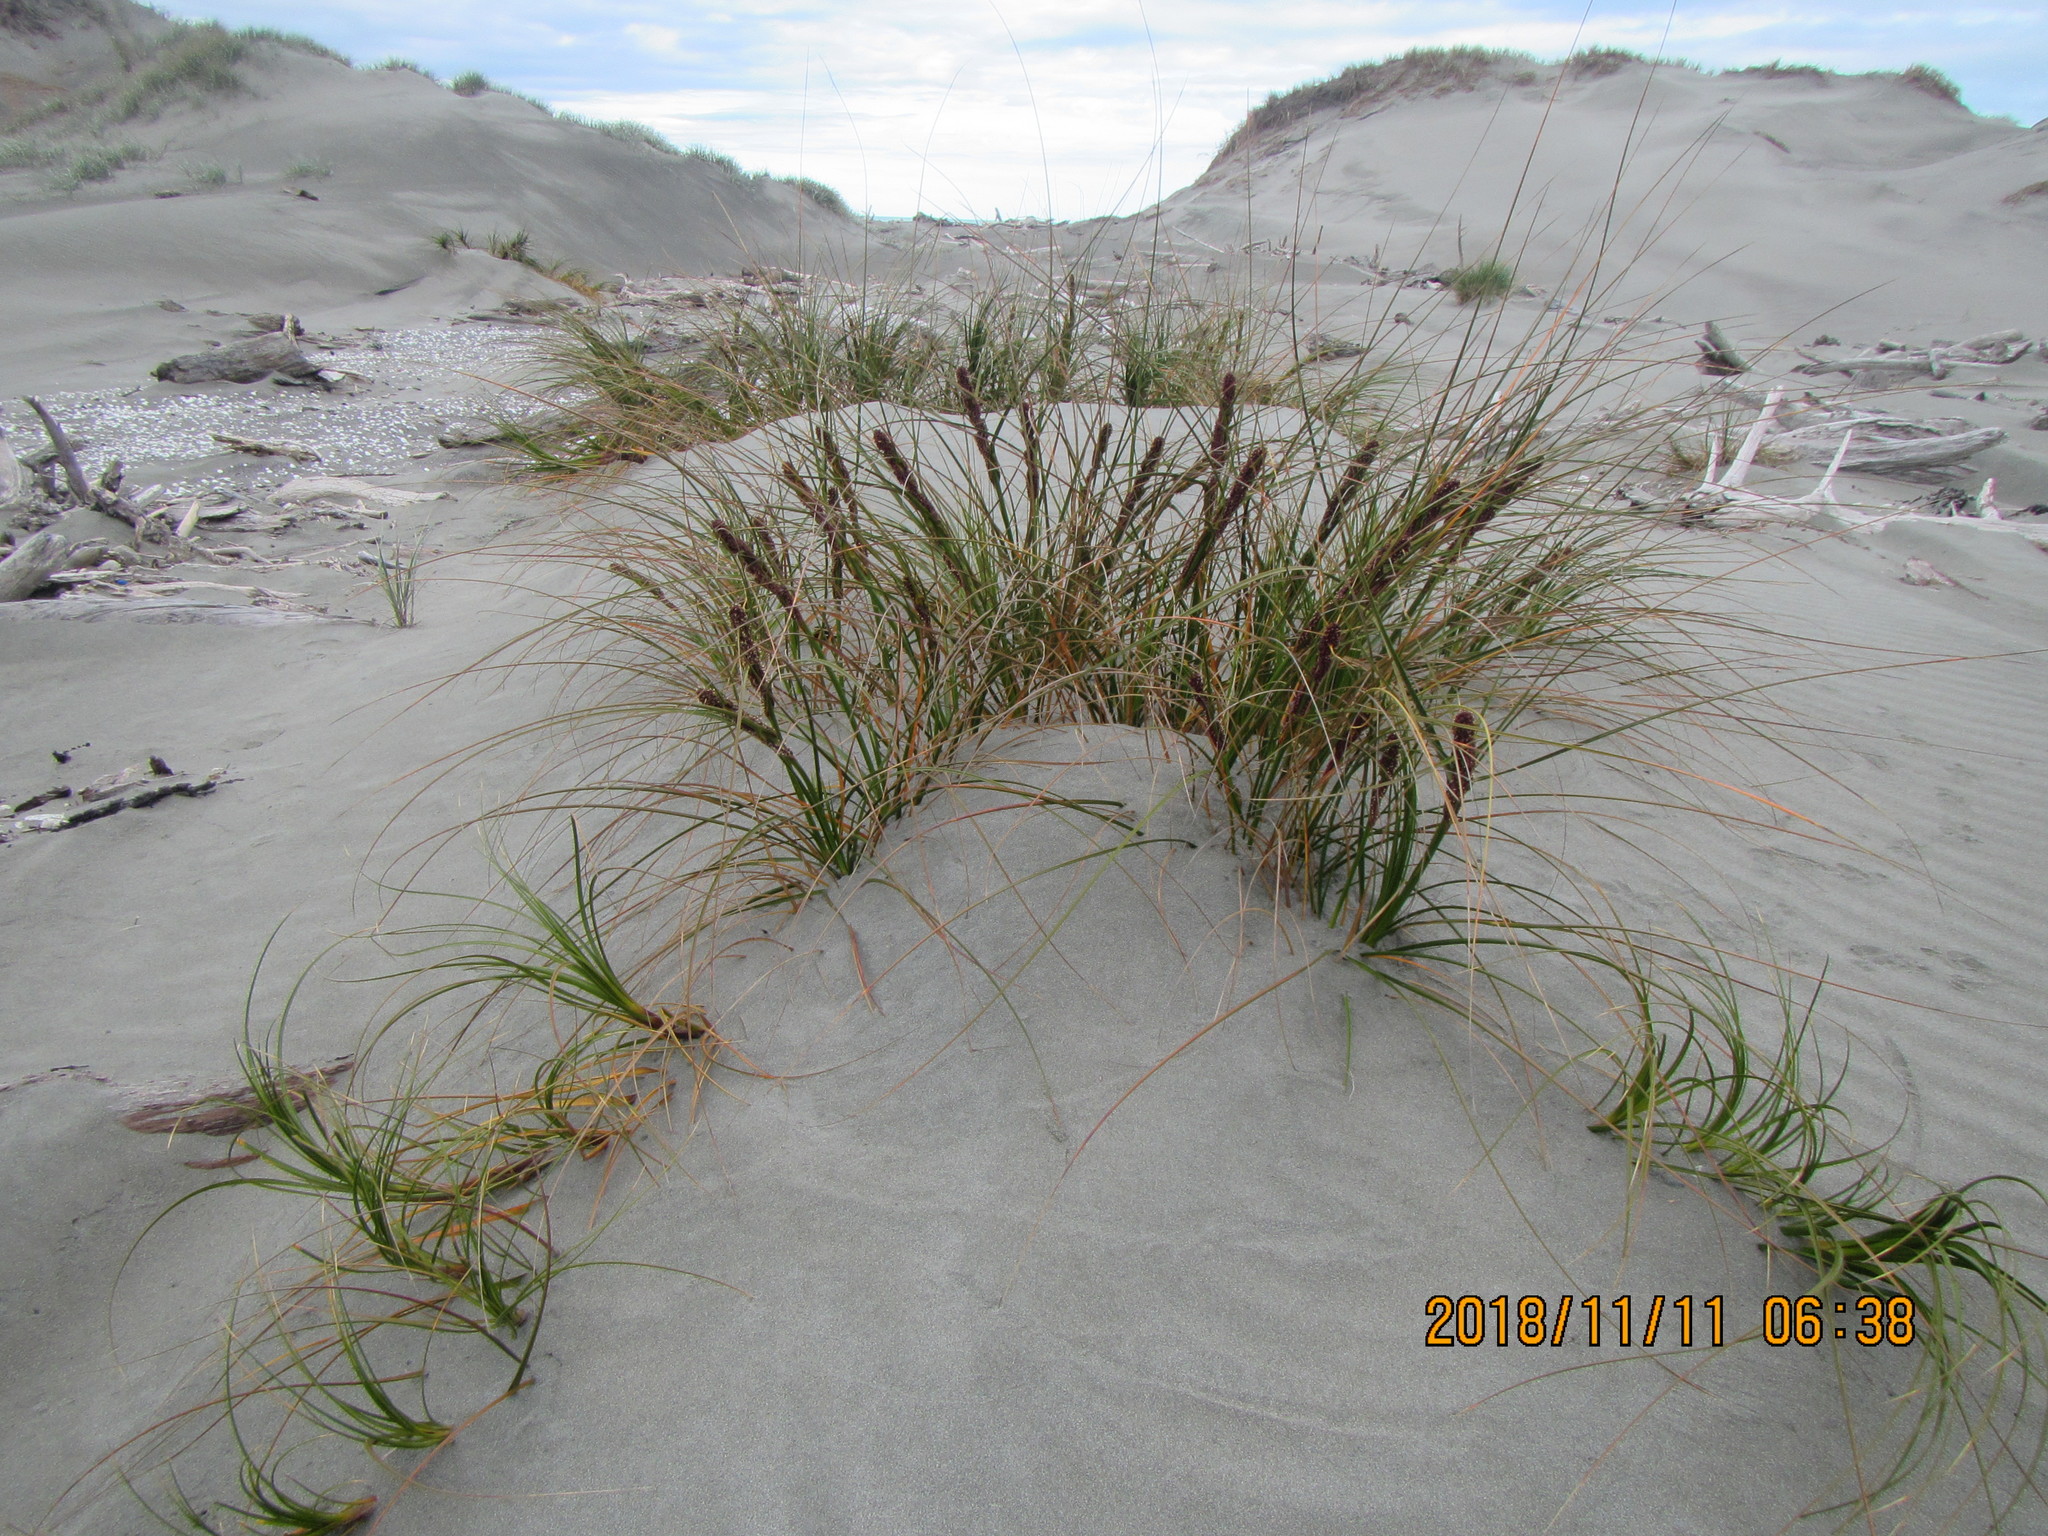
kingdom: Plantae
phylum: Tracheophyta
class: Liliopsida
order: Poales
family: Cyperaceae
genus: Ficinia
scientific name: Ficinia spiralis
